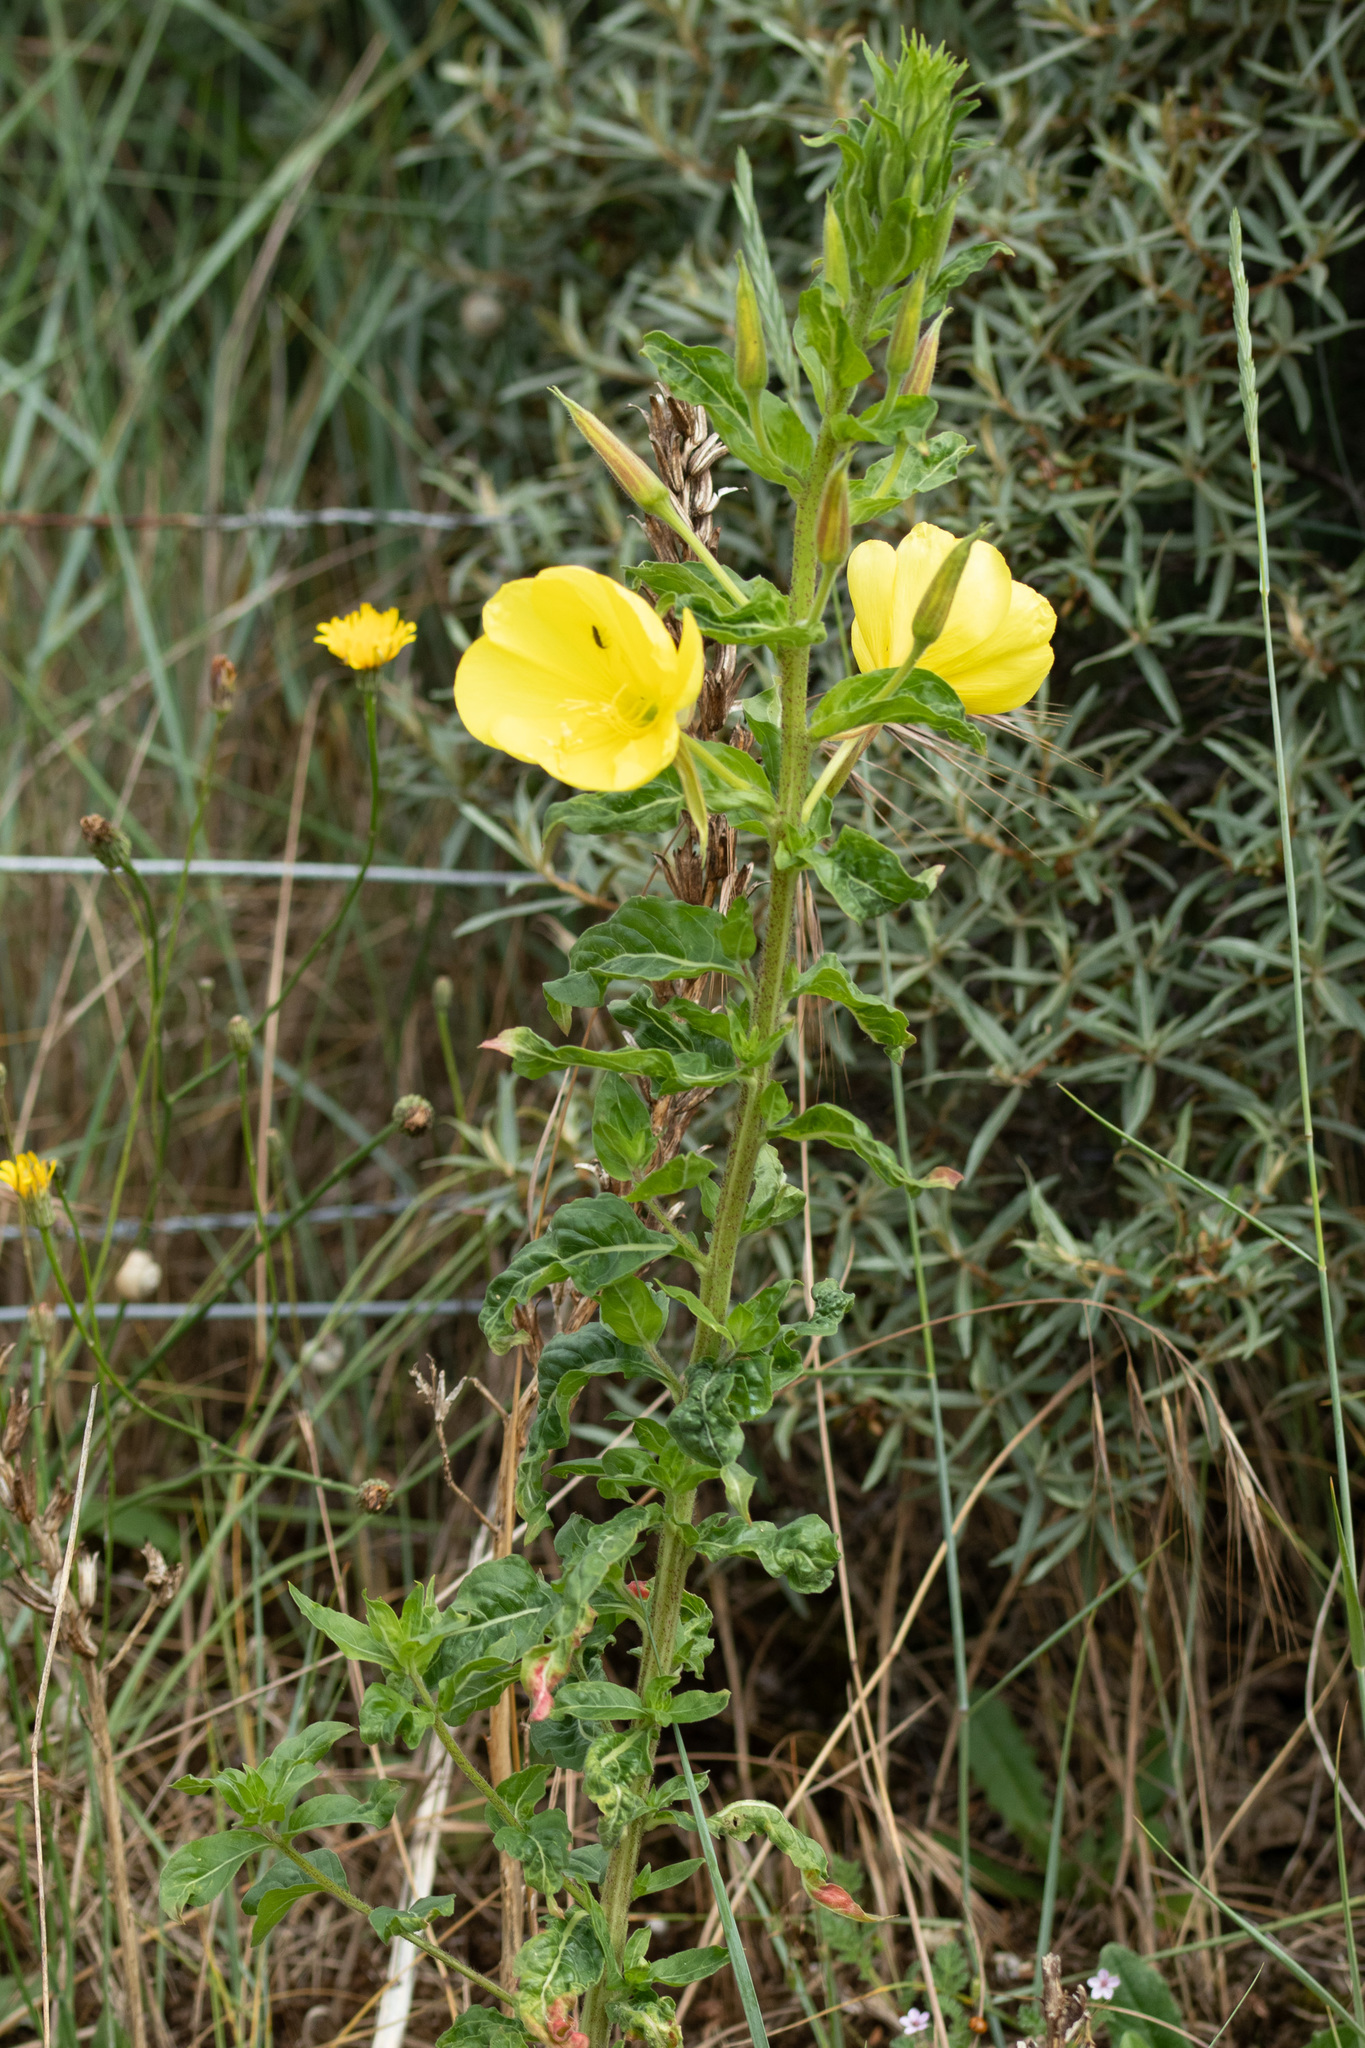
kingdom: Plantae
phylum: Tracheophyta
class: Magnoliopsida
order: Myrtales
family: Onagraceae
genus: Oenothera
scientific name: Oenothera glazioviana
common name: Large-flowered evening-primrose
